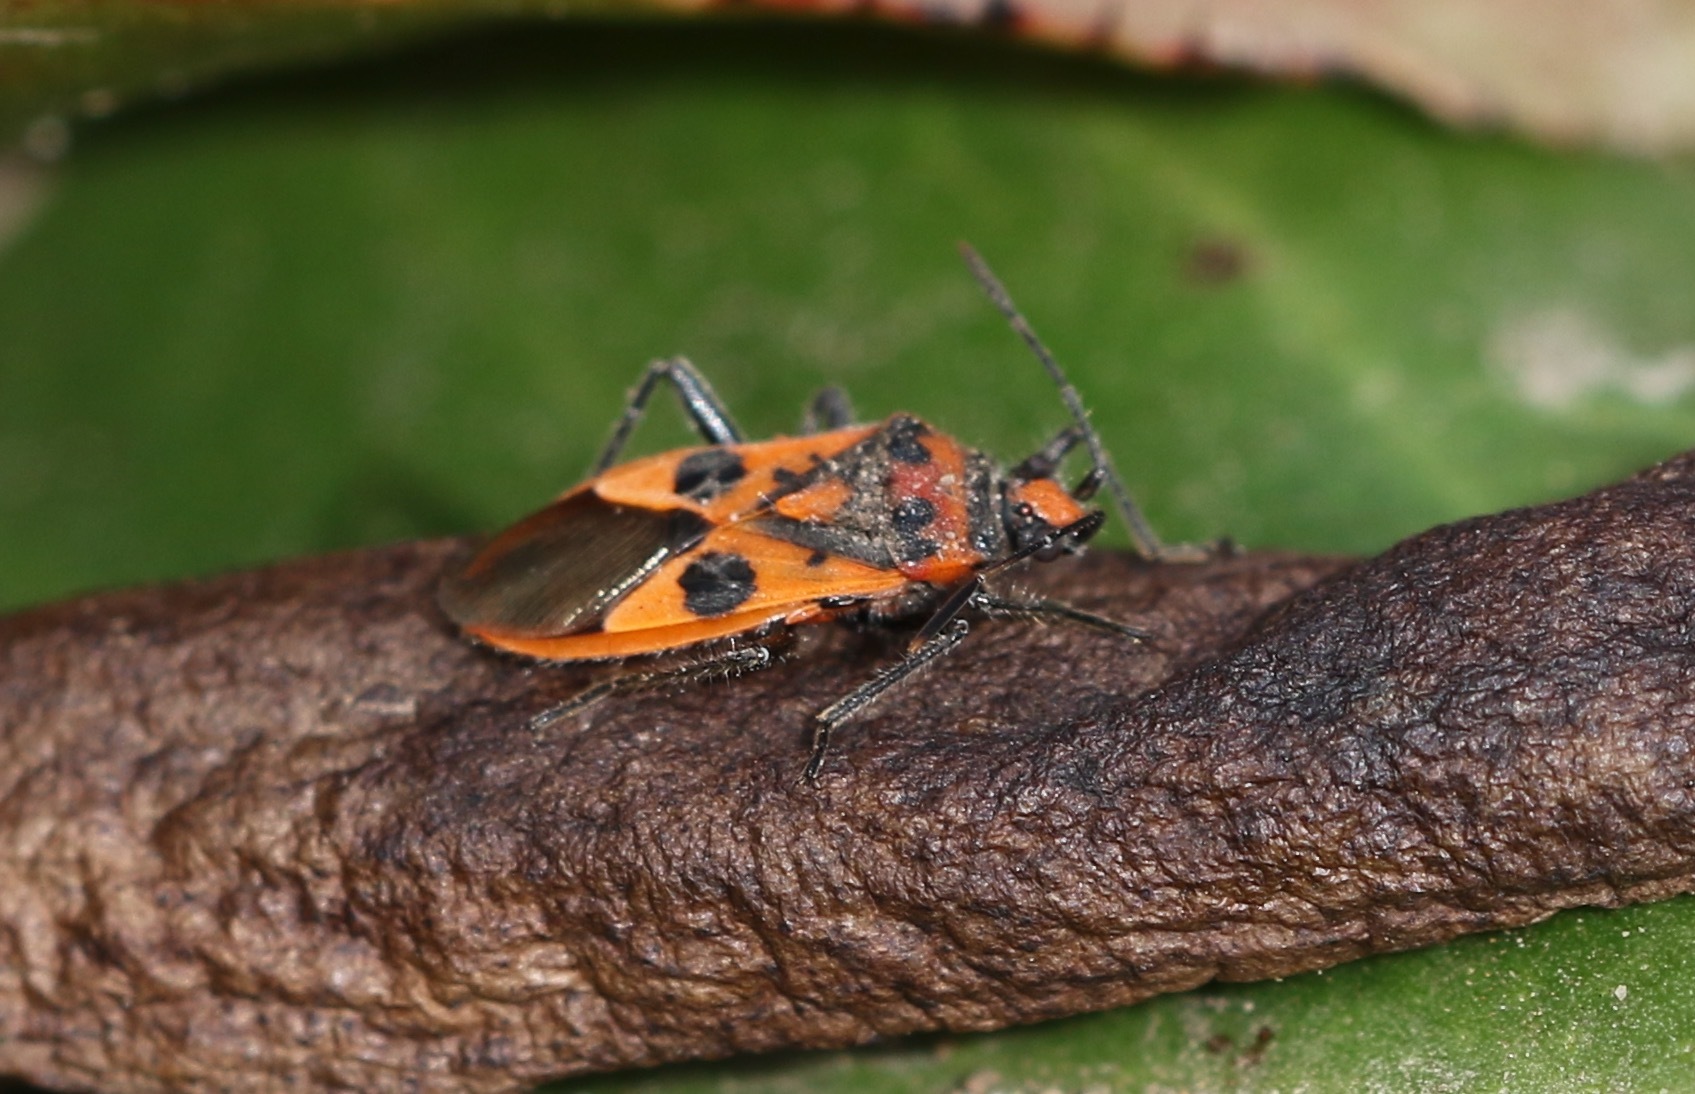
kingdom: Animalia
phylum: Arthropoda
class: Insecta
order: Hemiptera
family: Rhopalidae
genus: Corizus
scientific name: Corizus hyoscyami
